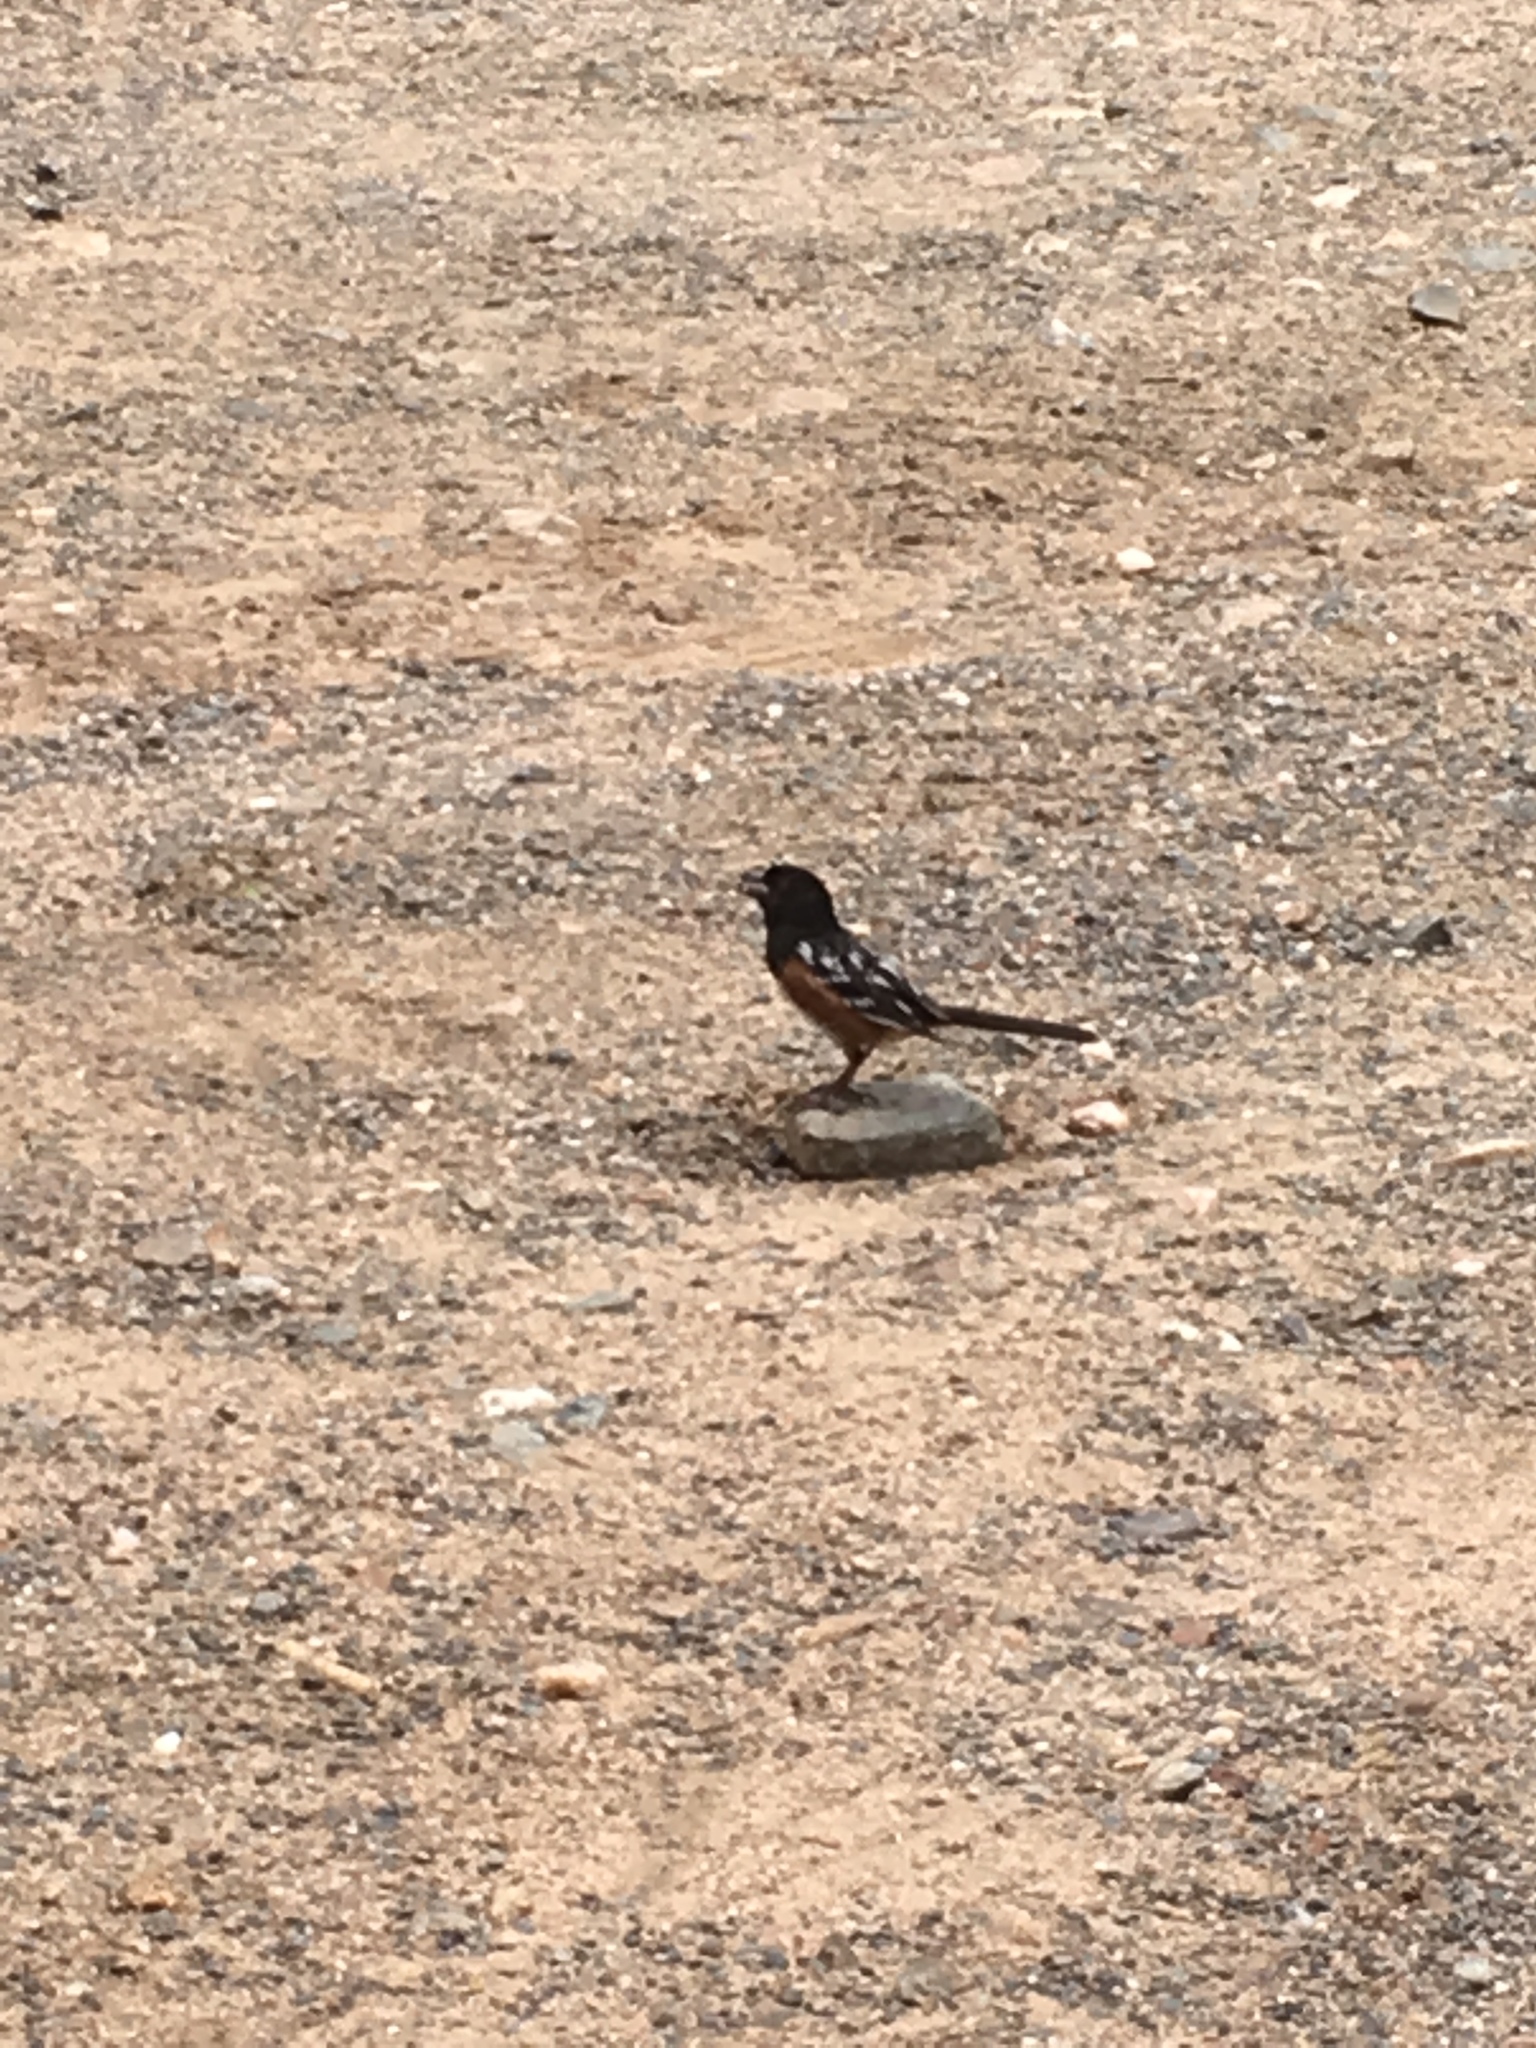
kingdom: Animalia
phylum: Chordata
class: Aves
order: Passeriformes
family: Passerellidae
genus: Pipilo
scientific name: Pipilo maculatus
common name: Spotted towhee
